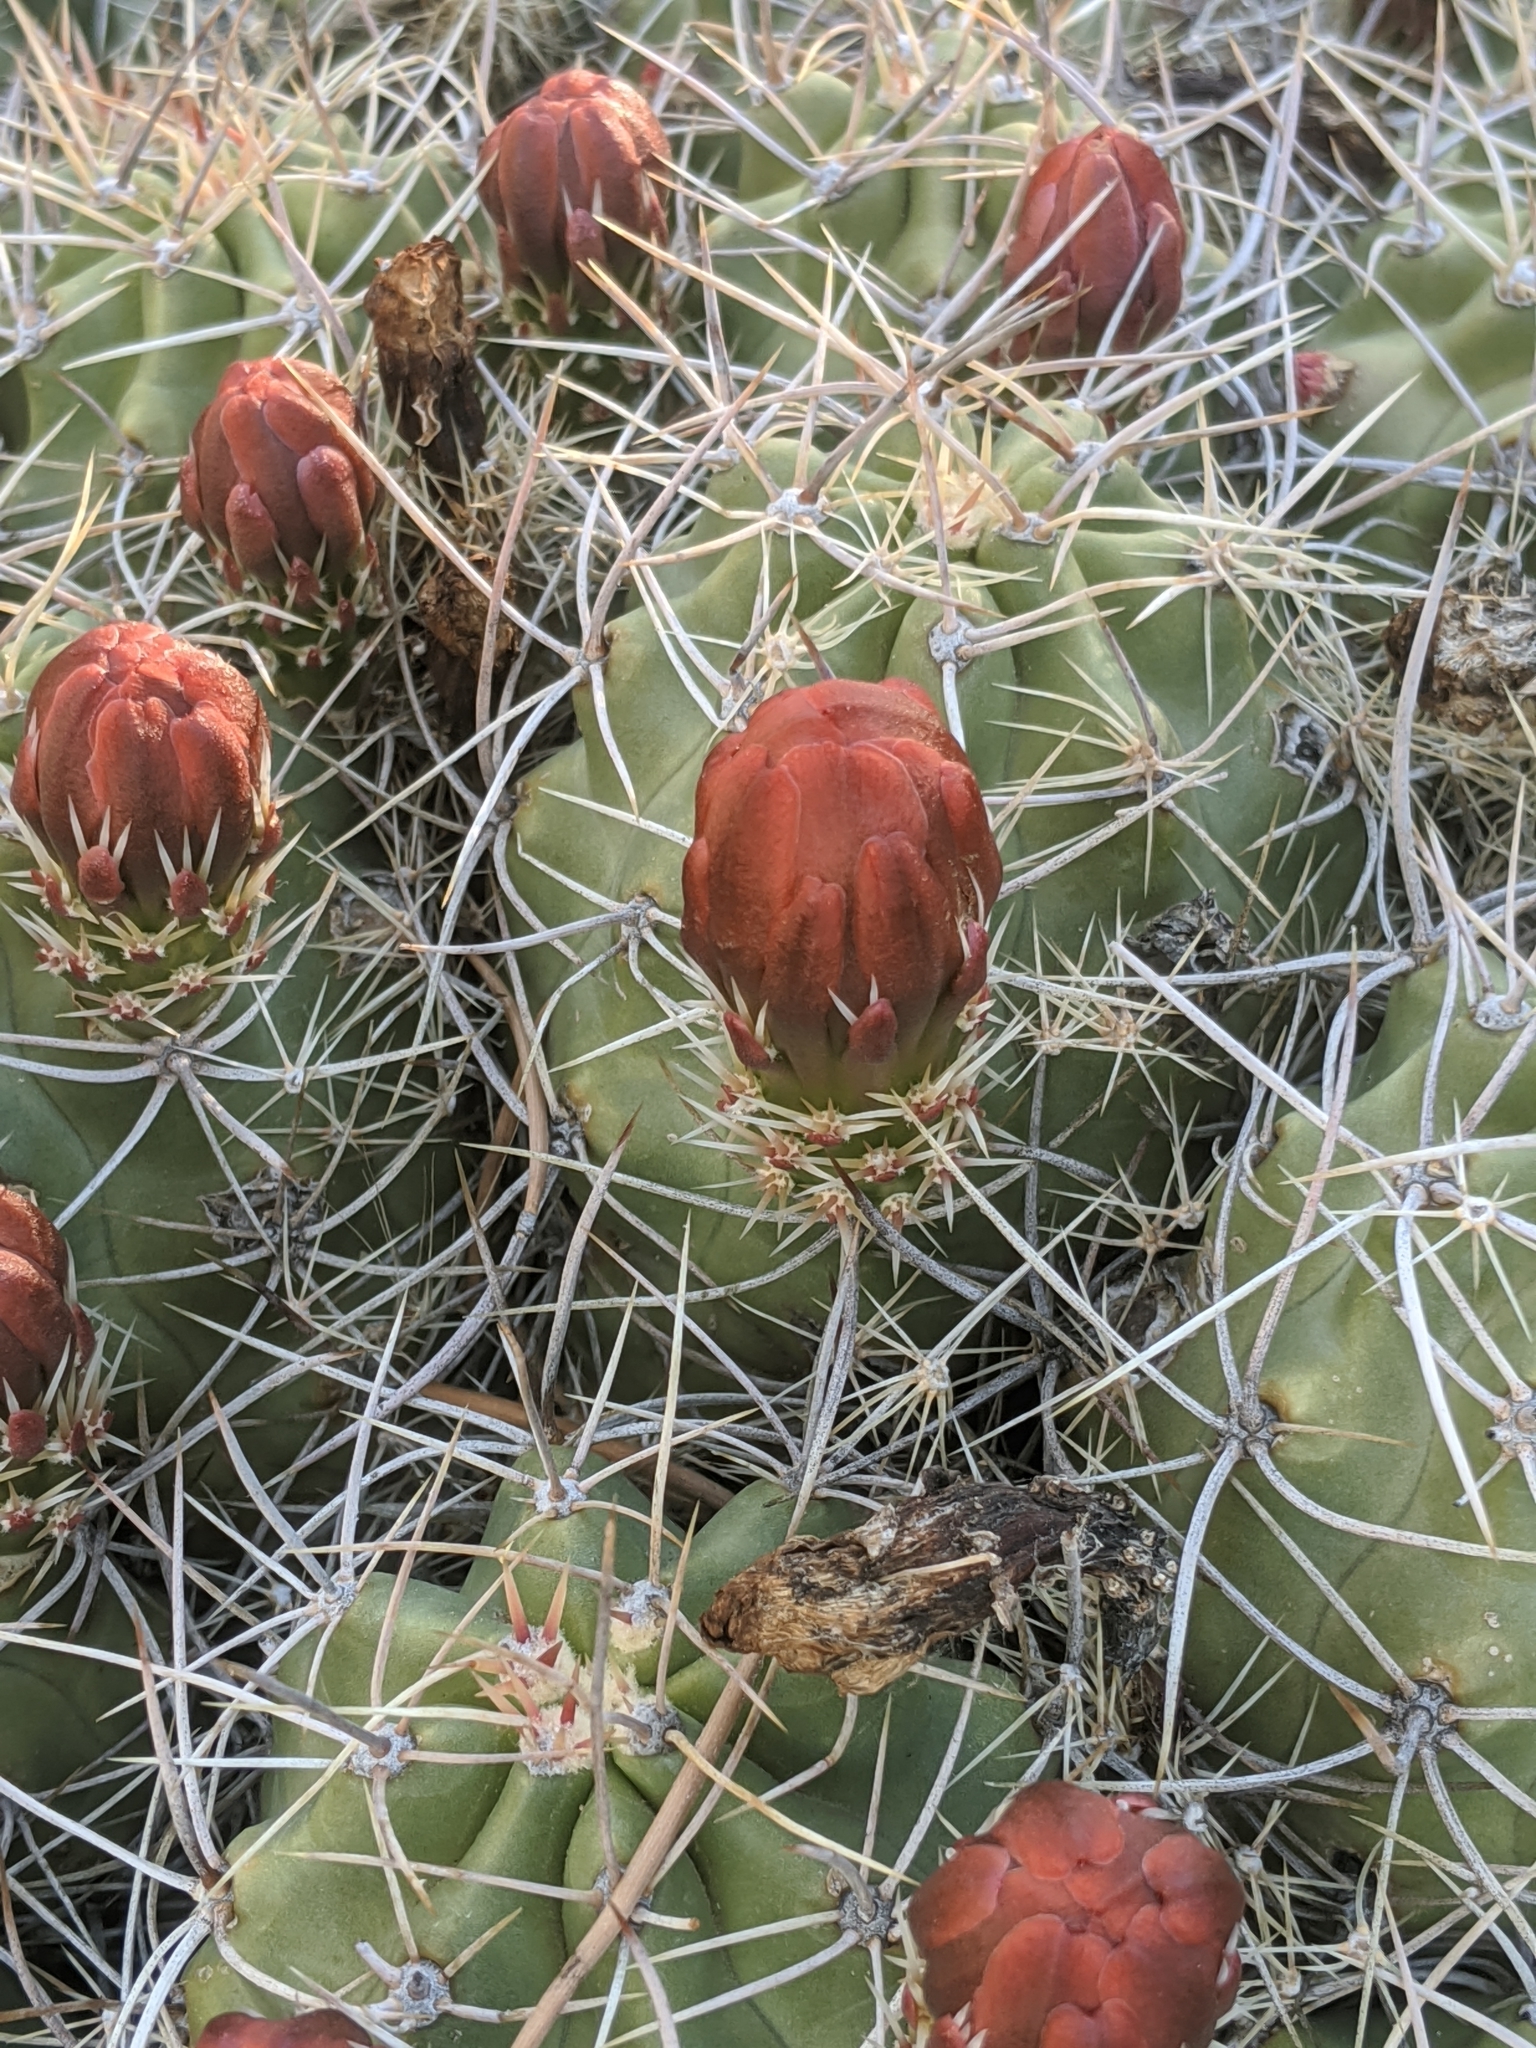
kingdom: Plantae
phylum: Tracheophyta
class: Magnoliopsida
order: Caryophyllales
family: Cactaceae
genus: Echinocereus
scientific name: Echinocereus triglochidiatus
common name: Claretcup hedgehog
